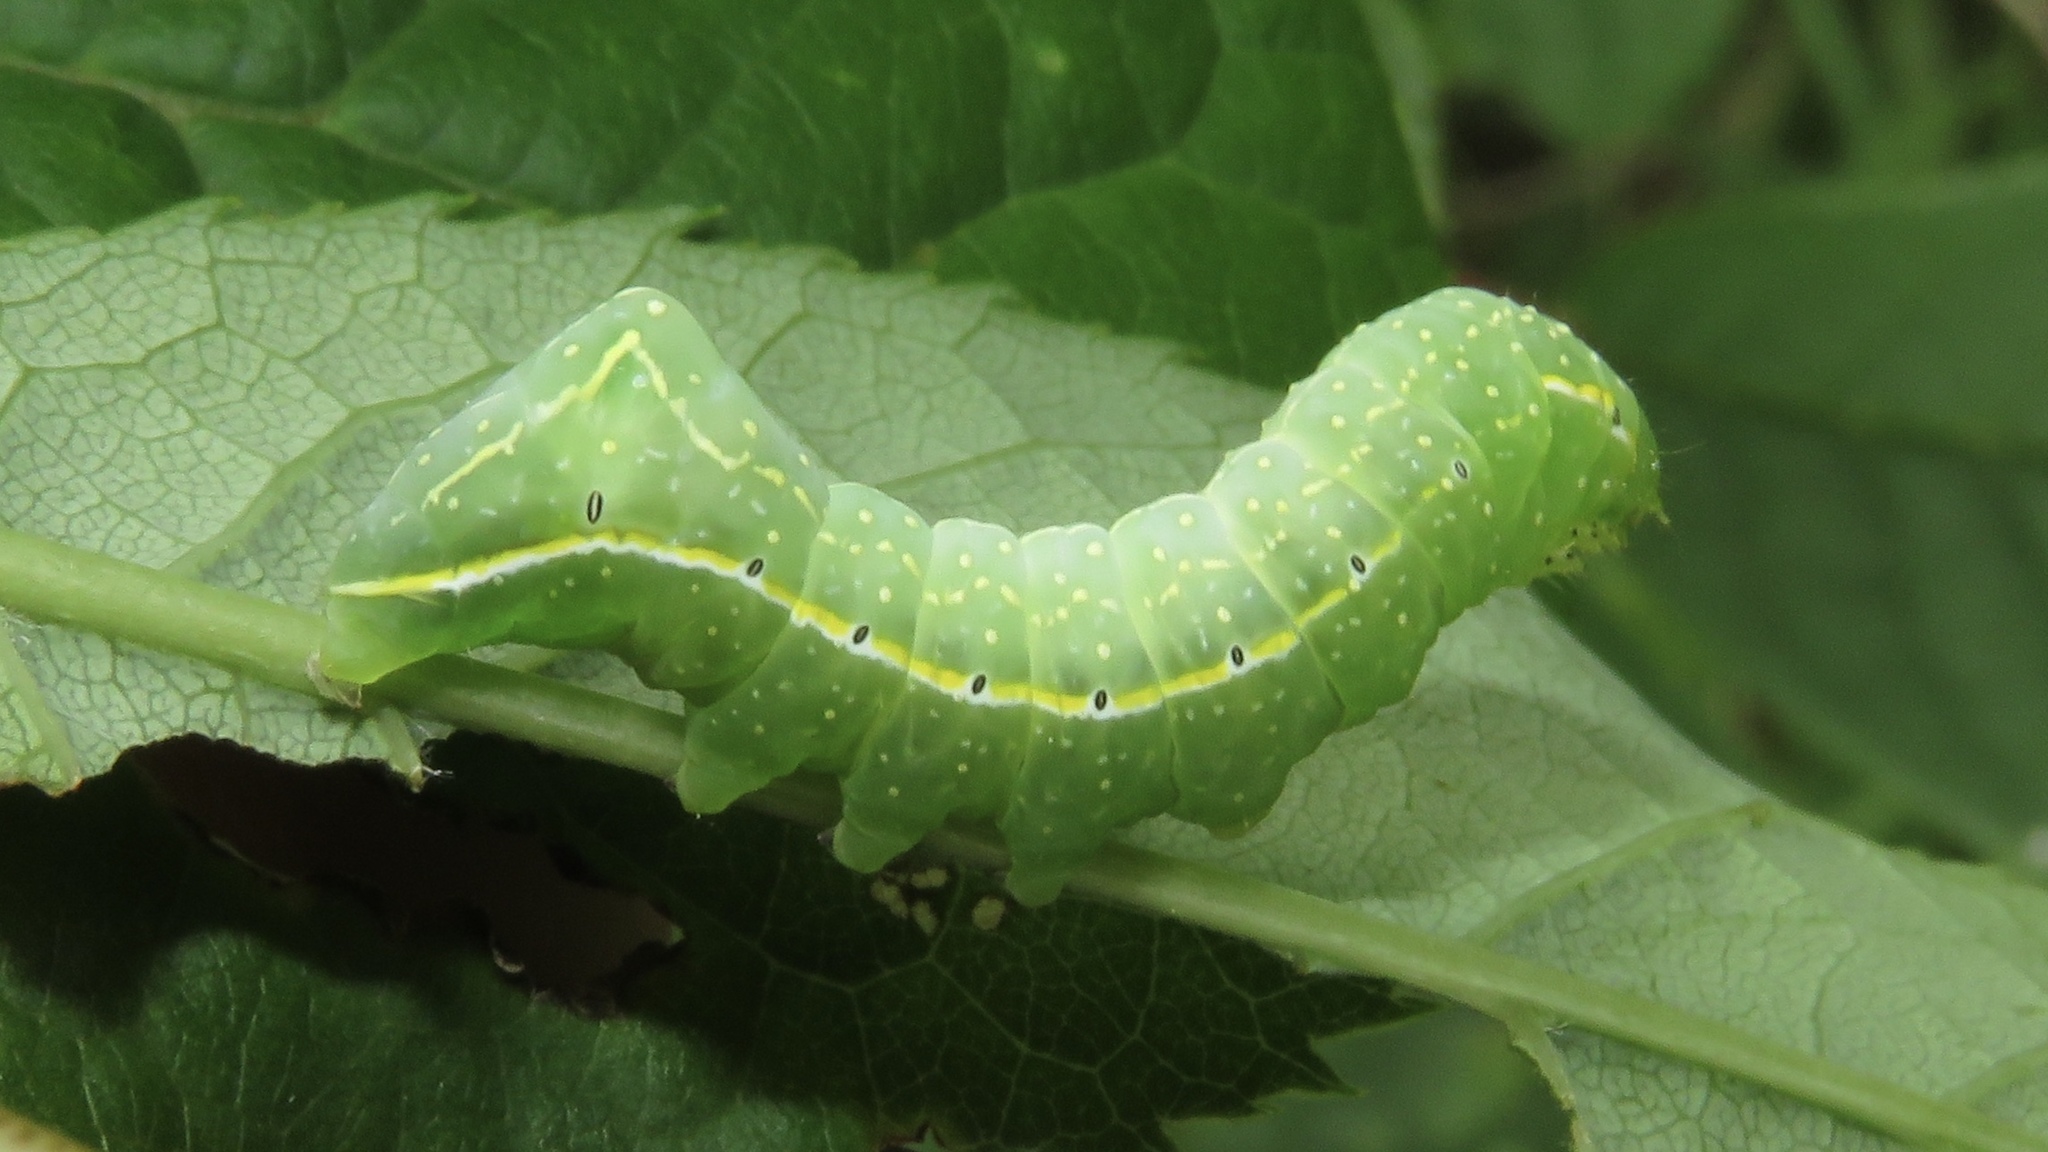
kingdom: Animalia
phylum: Arthropoda
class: Insecta
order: Lepidoptera
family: Noctuidae
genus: Amphipyra
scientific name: Amphipyra pyramidoides
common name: American copper underwing
